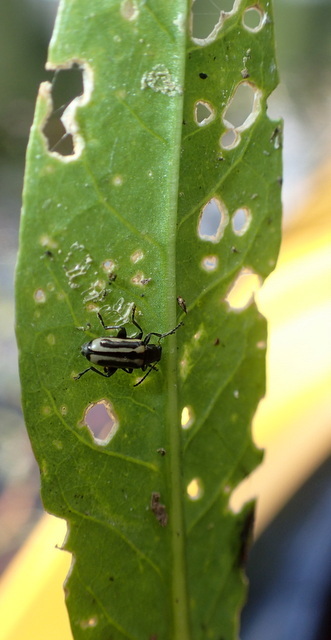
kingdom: Animalia
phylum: Arthropoda
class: Insecta
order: Coleoptera
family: Chrysomelidae
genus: Agasicles
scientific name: Agasicles hygrophila
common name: Alligatorweed flea beetle
